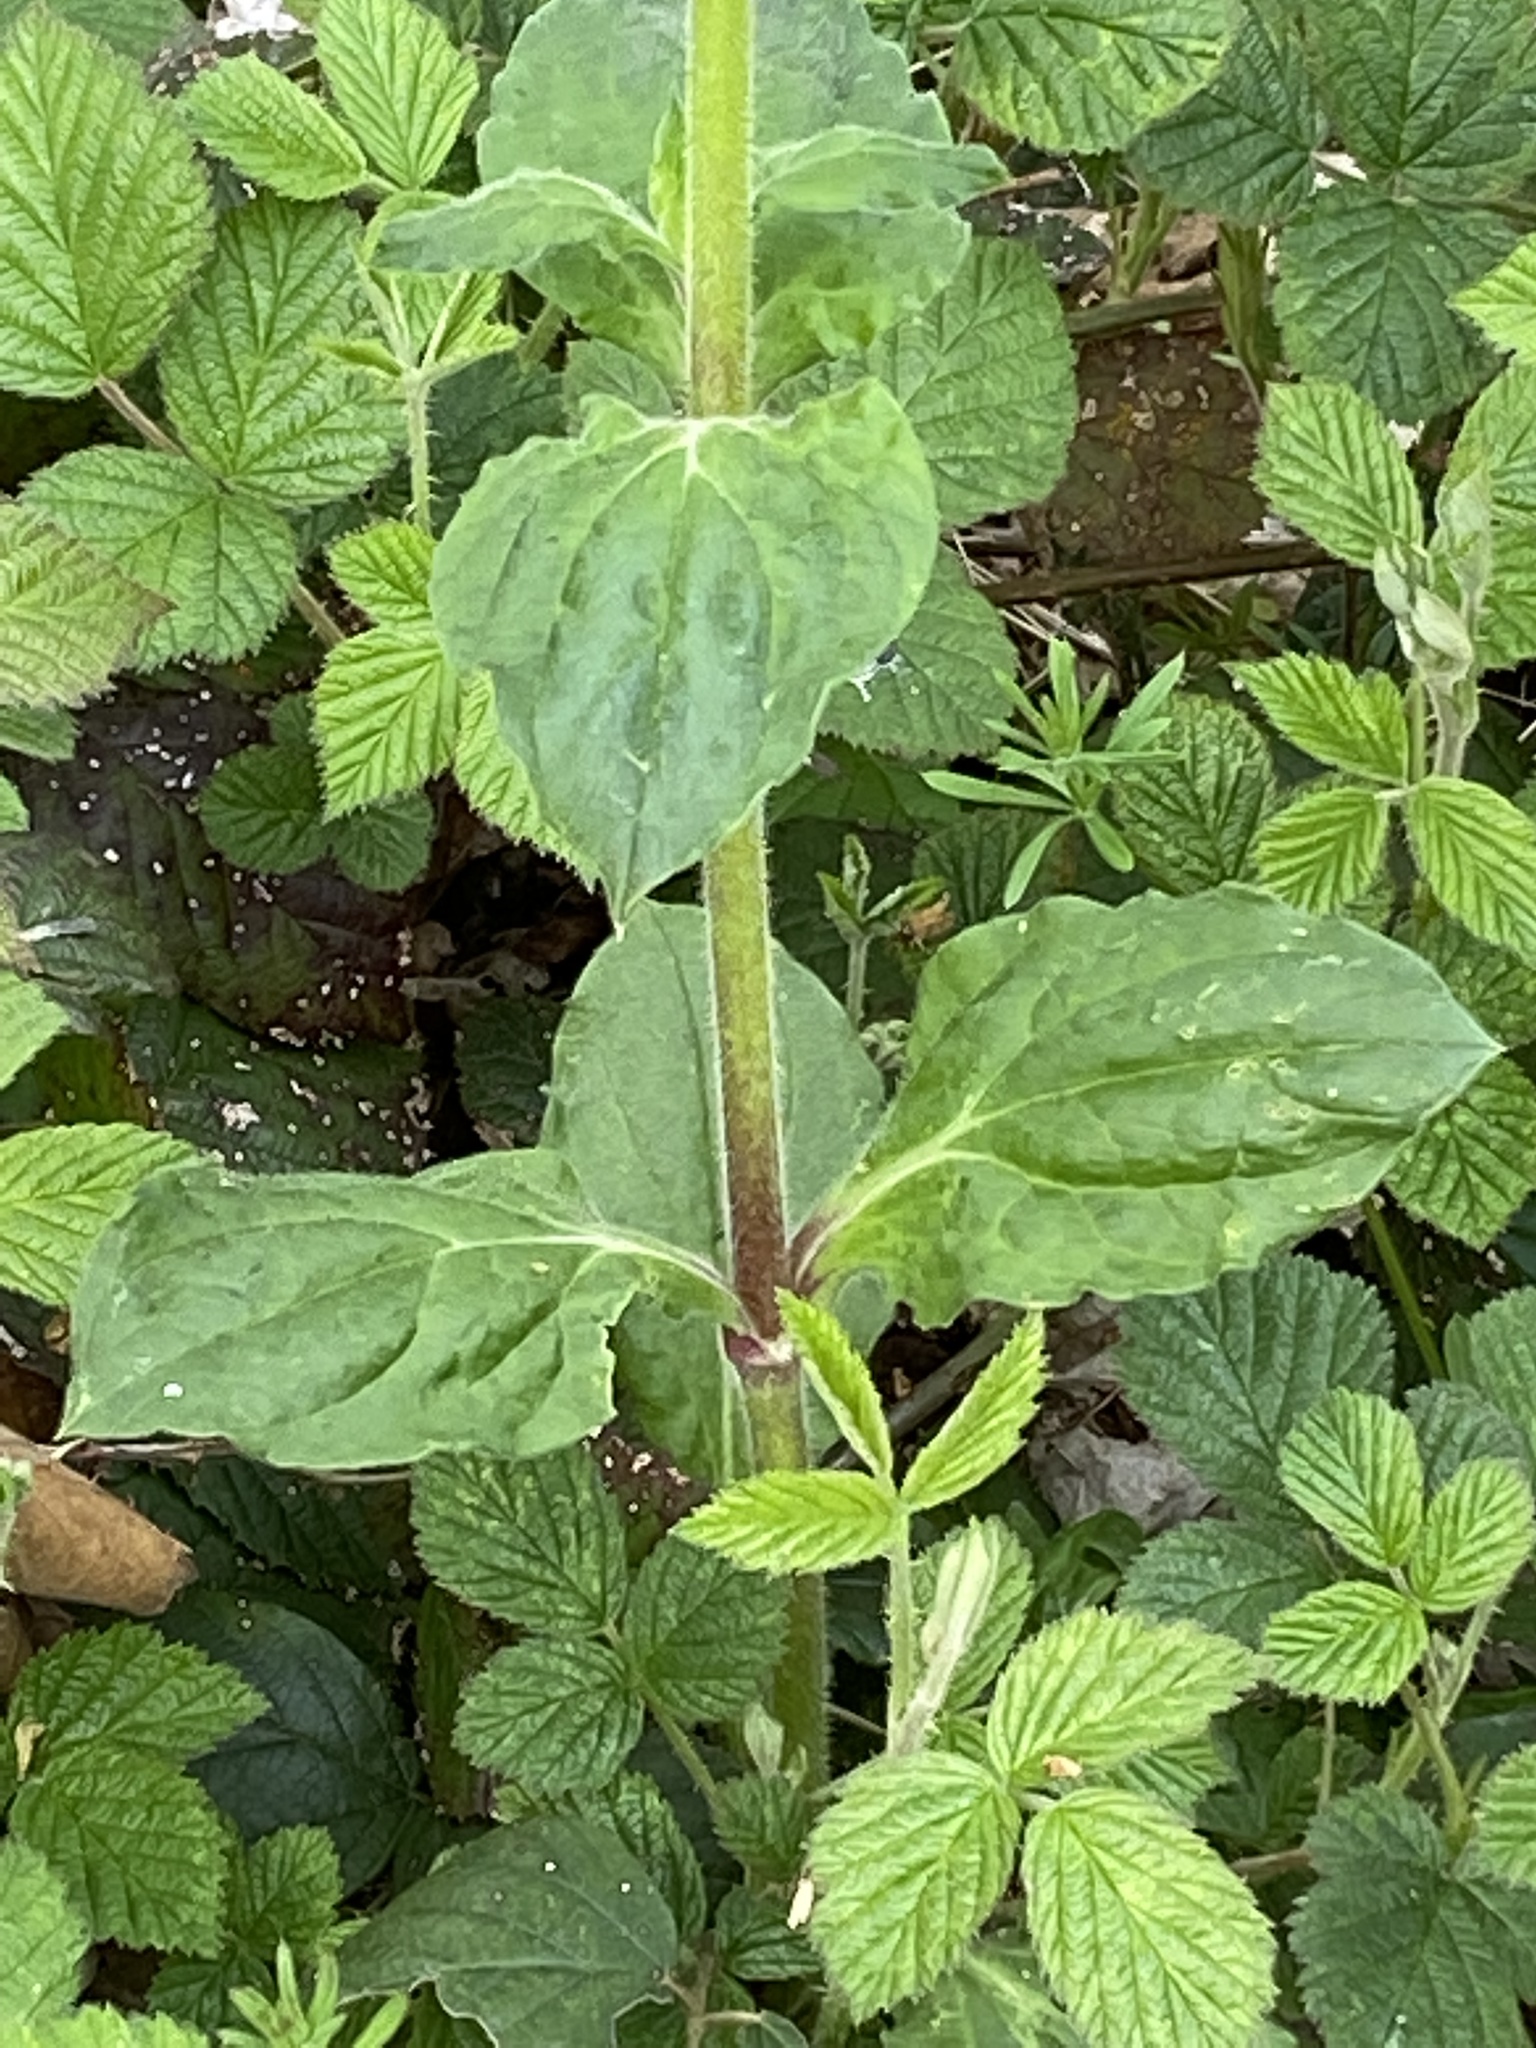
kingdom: Plantae
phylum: Tracheophyta
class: Magnoliopsida
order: Caryophyllales
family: Caryophyllaceae
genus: Silene
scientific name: Silene dioica
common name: Red campion
